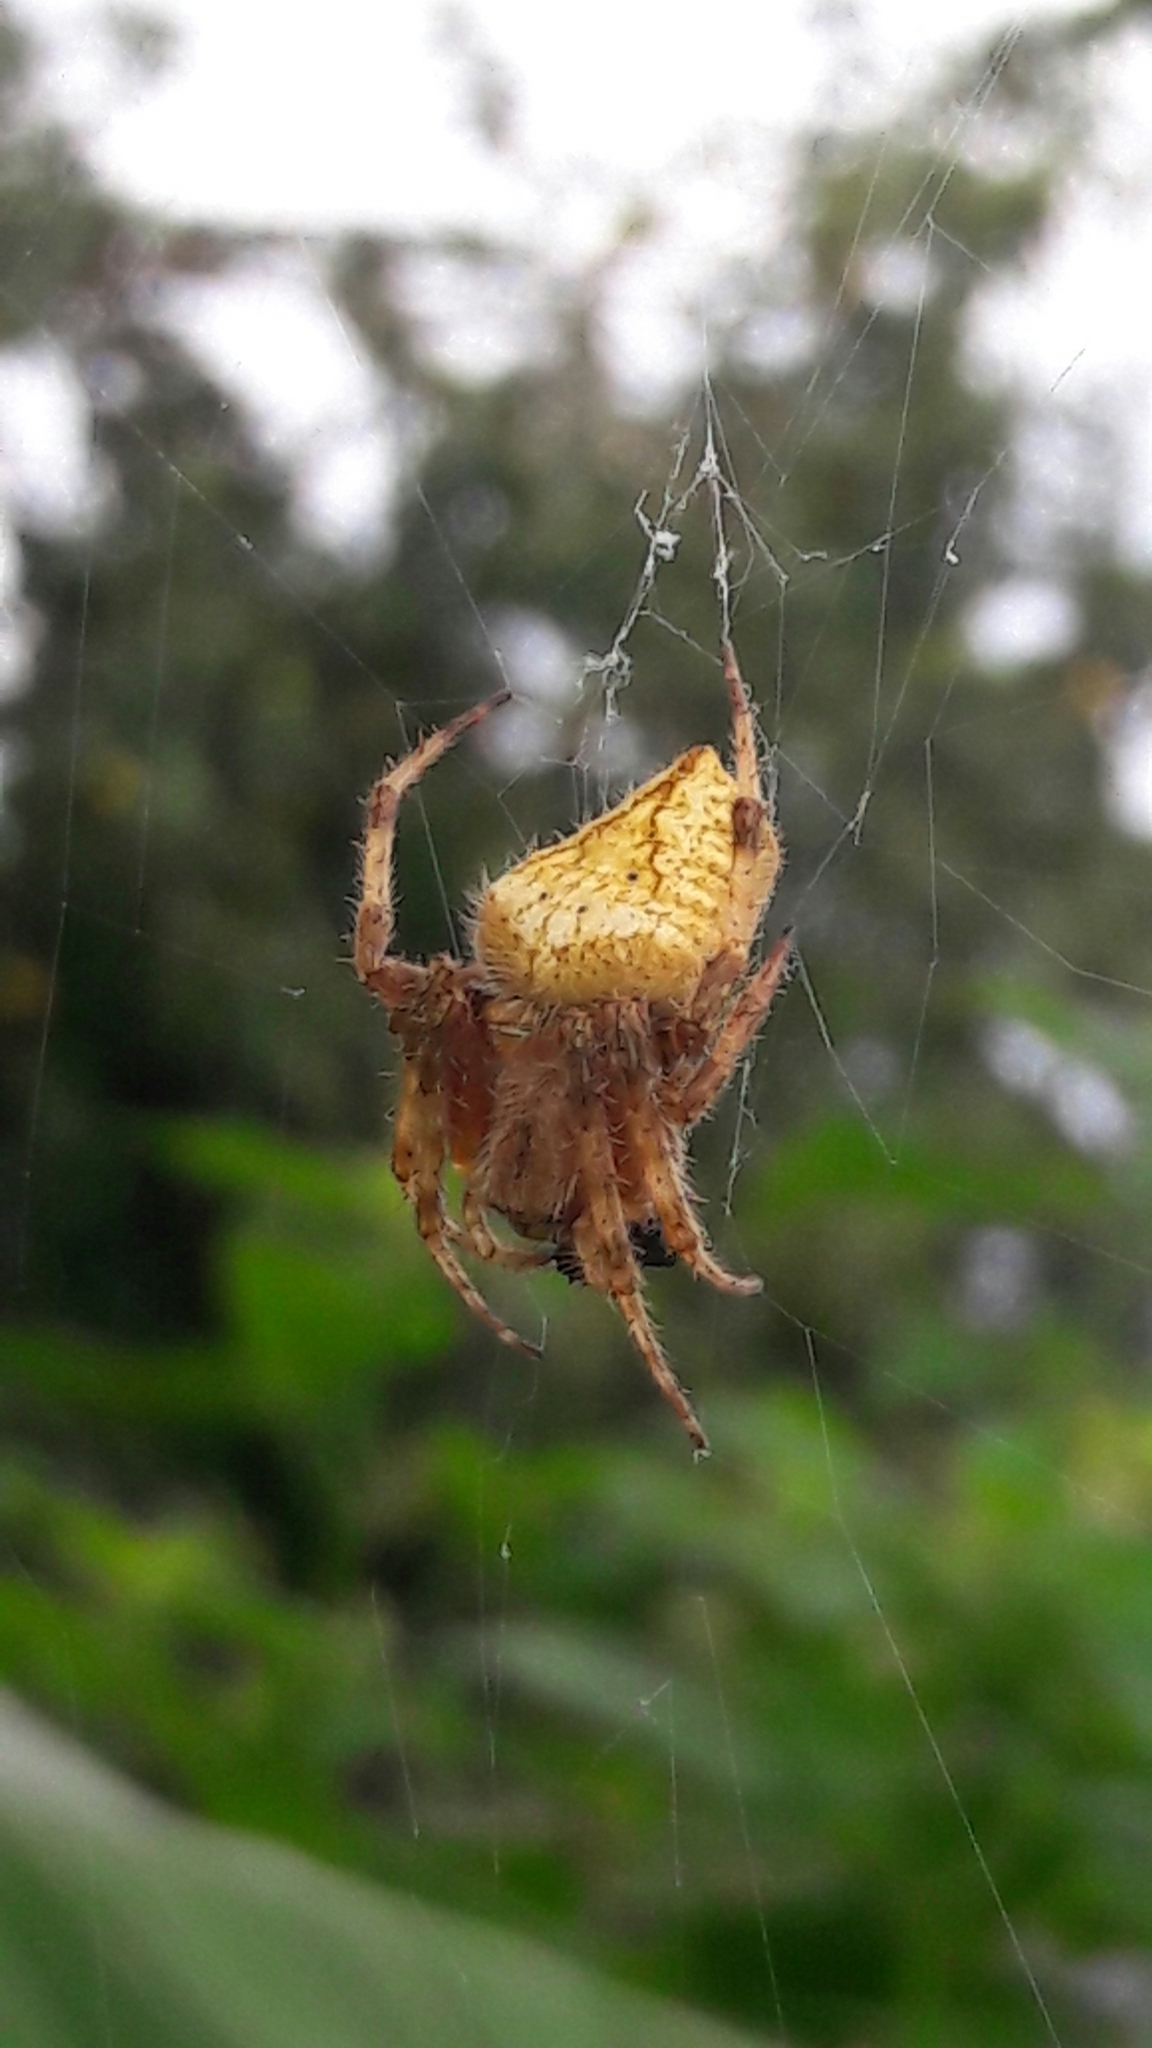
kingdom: Animalia
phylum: Arthropoda
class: Arachnida
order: Araneae
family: Araneidae
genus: Eriophora
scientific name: Eriophora edax
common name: Orb weavers
